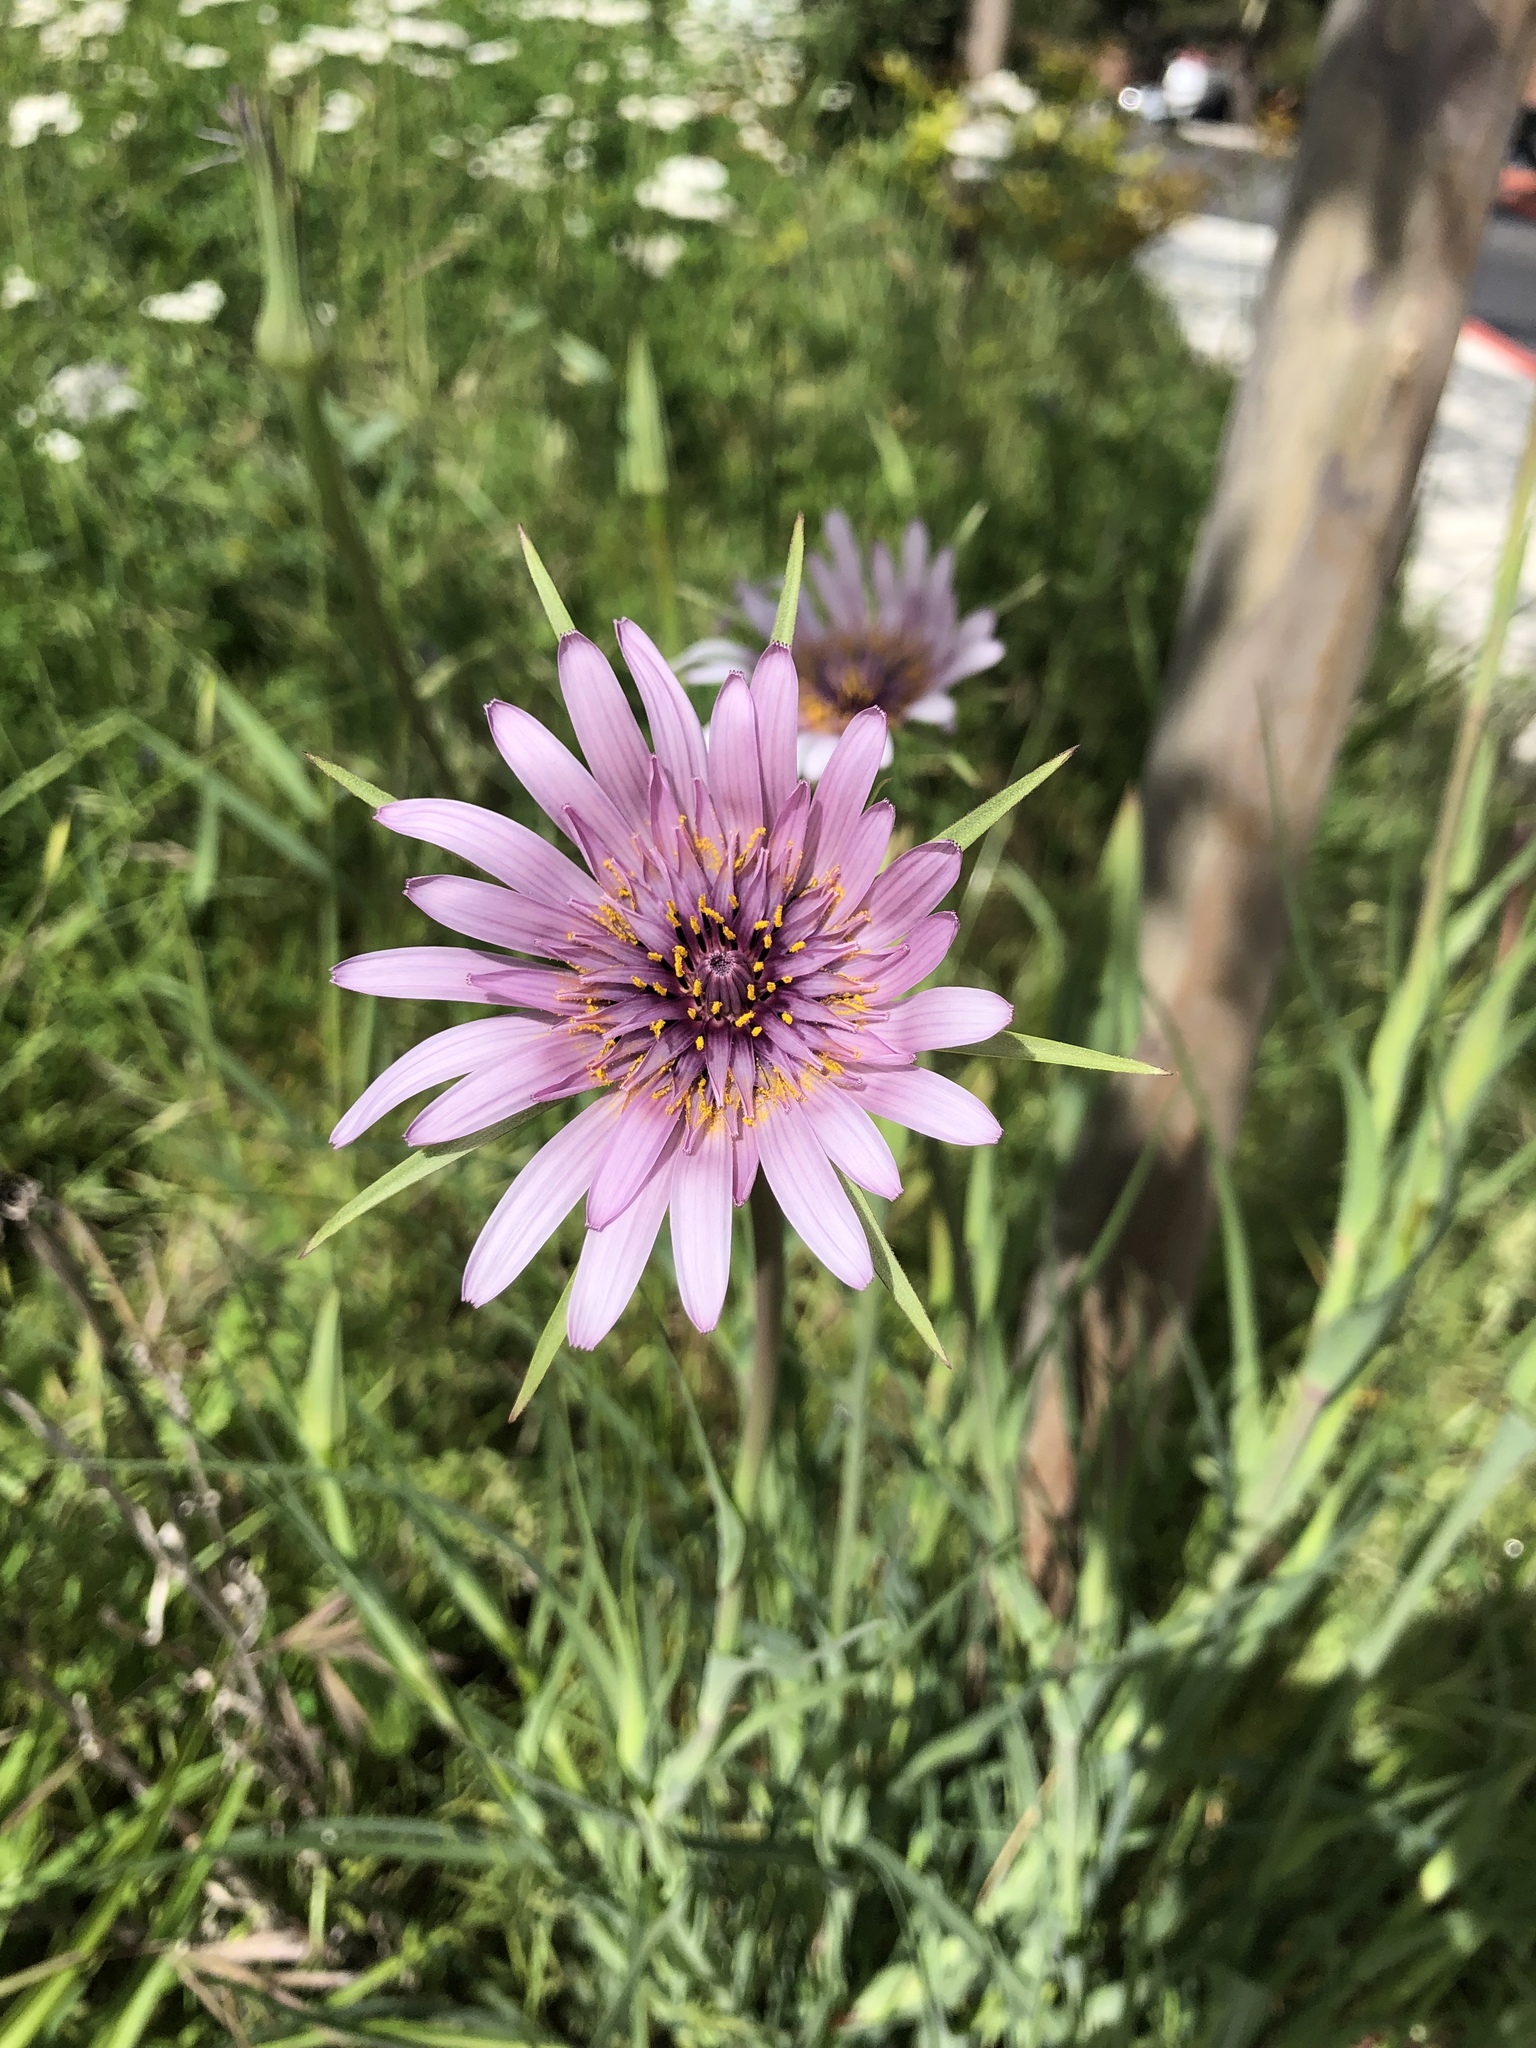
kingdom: Plantae
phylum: Tracheophyta
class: Magnoliopsida
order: Asterales
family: Asteraceae
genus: Tragopogon
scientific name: Tragopogon porrifolius
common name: Salsify
